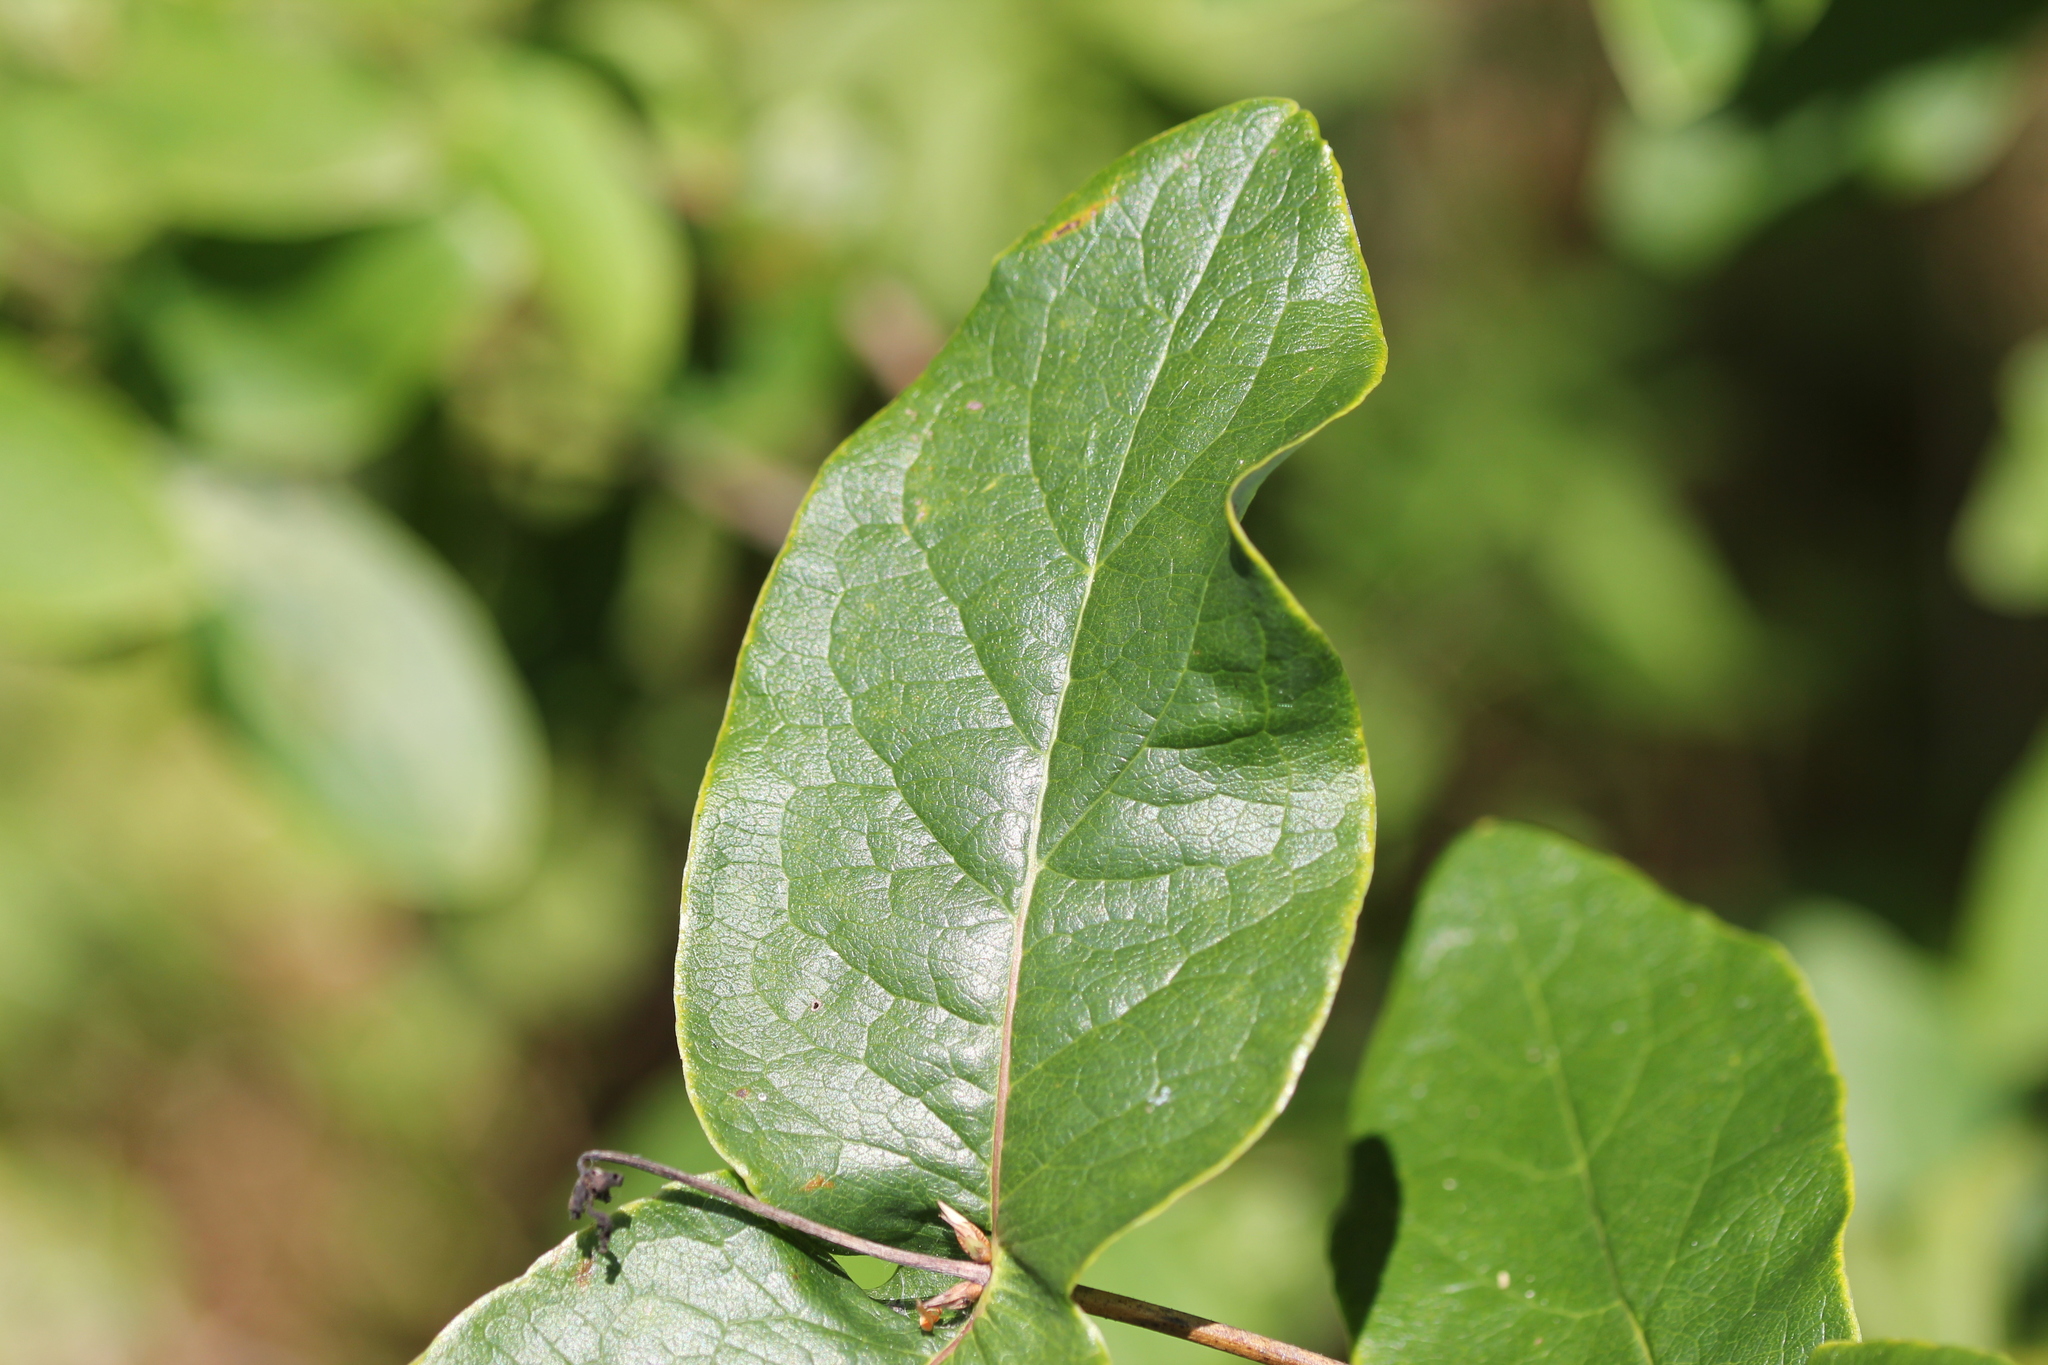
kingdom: Plantae
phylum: Tracheophyta
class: Magnoliopsida
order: Dipsacales
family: Caprifoliaceae
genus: Lonicera
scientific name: Lonicera dioica
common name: Limber honeysuckle
